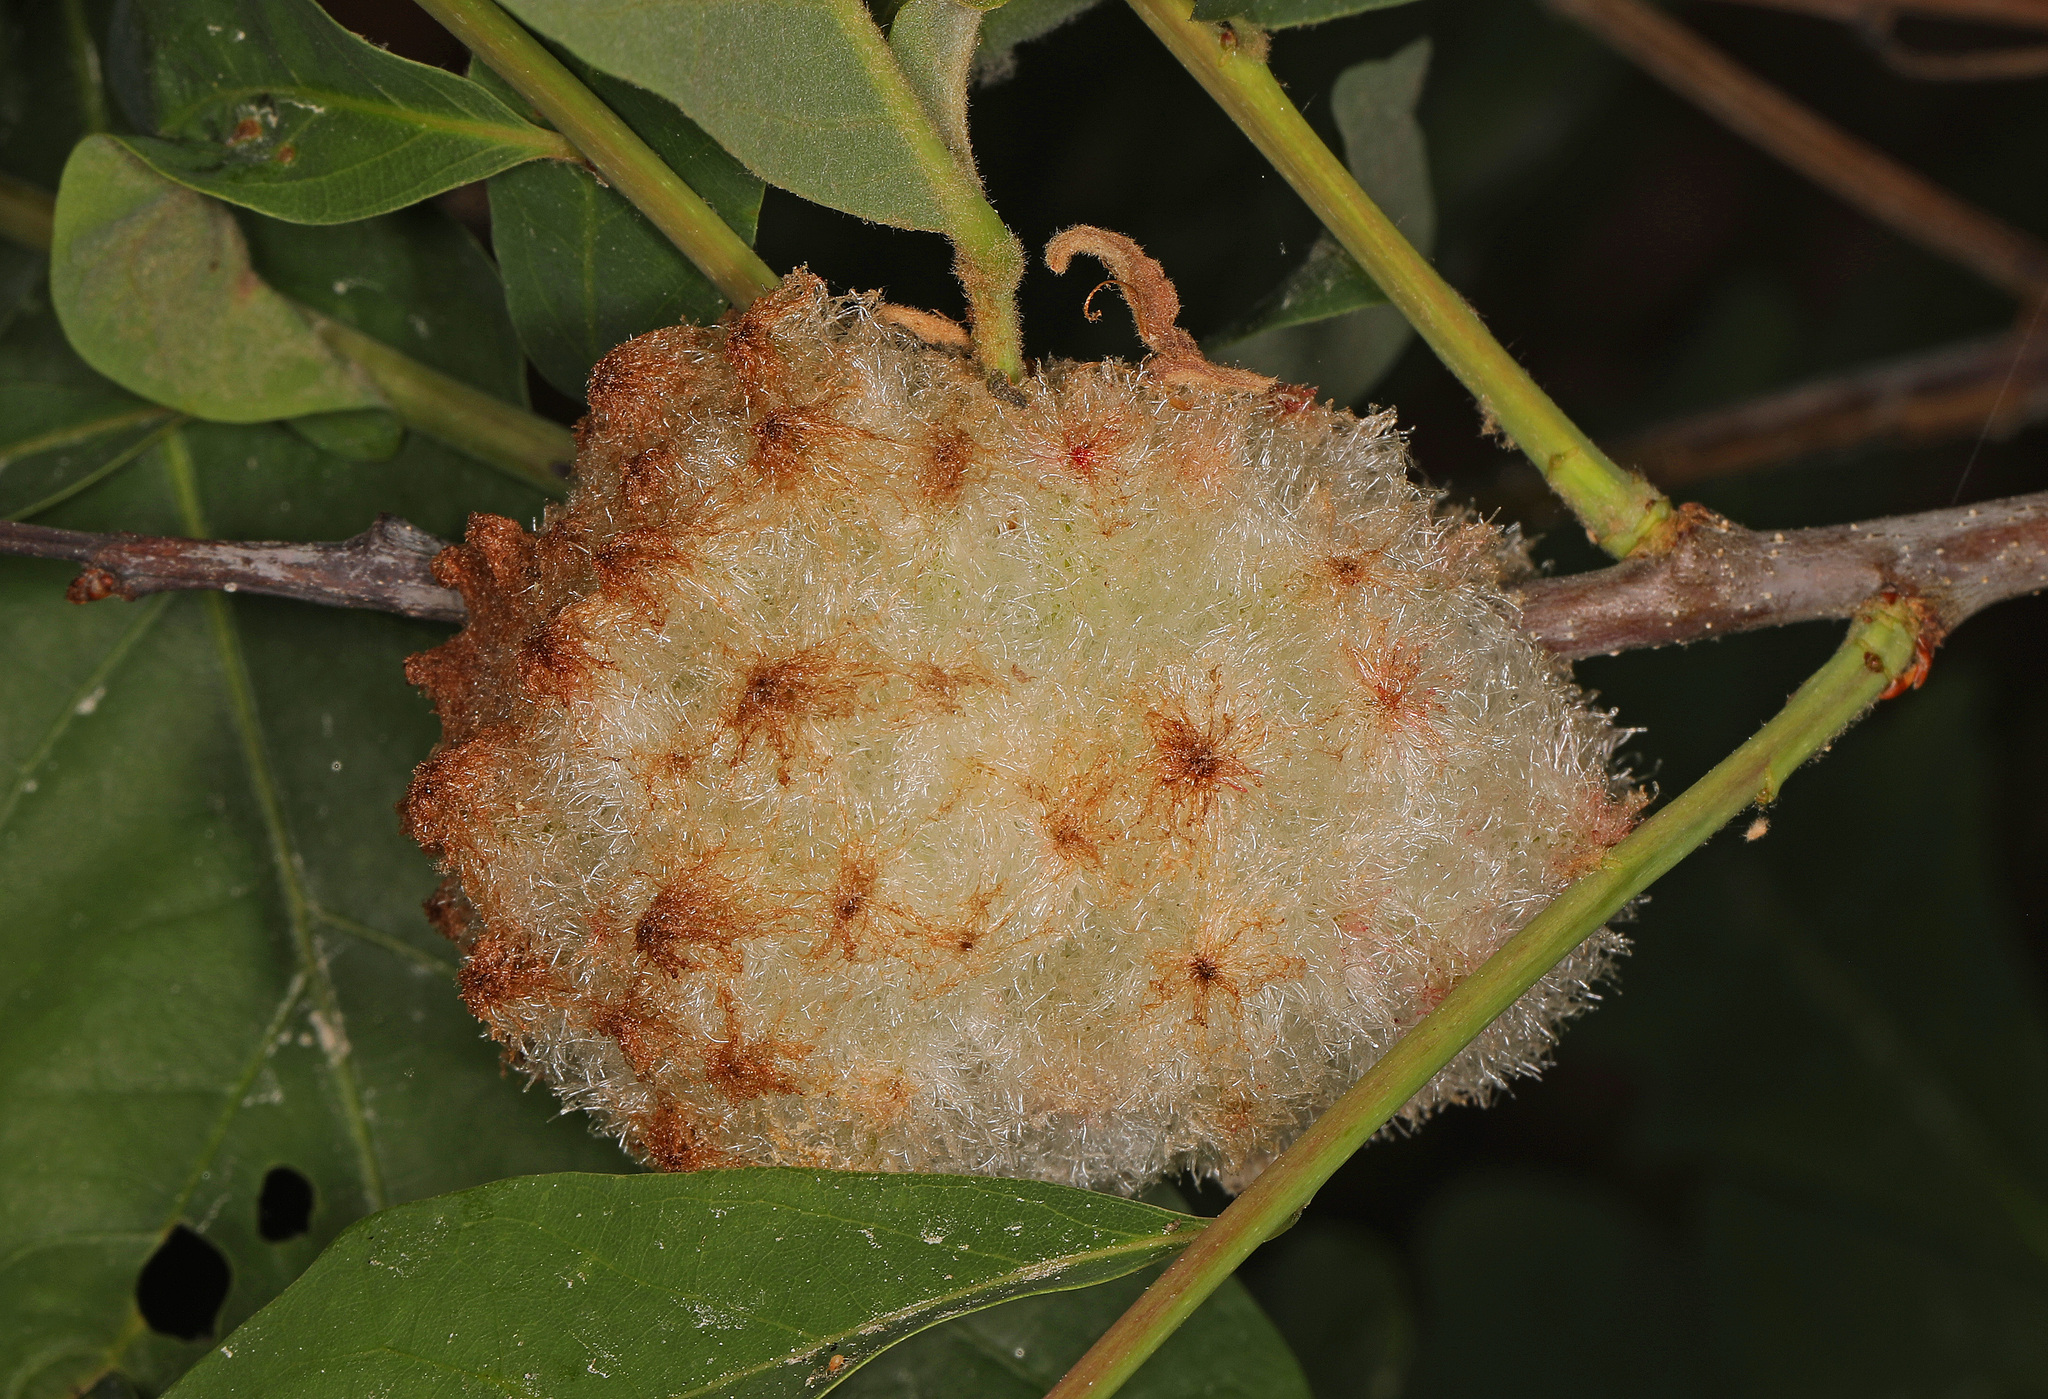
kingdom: Animalia
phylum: Arthropoda
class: Insecta
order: Hymenoptera
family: Cynipidae
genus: Callirhytis
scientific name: Callirhytis
